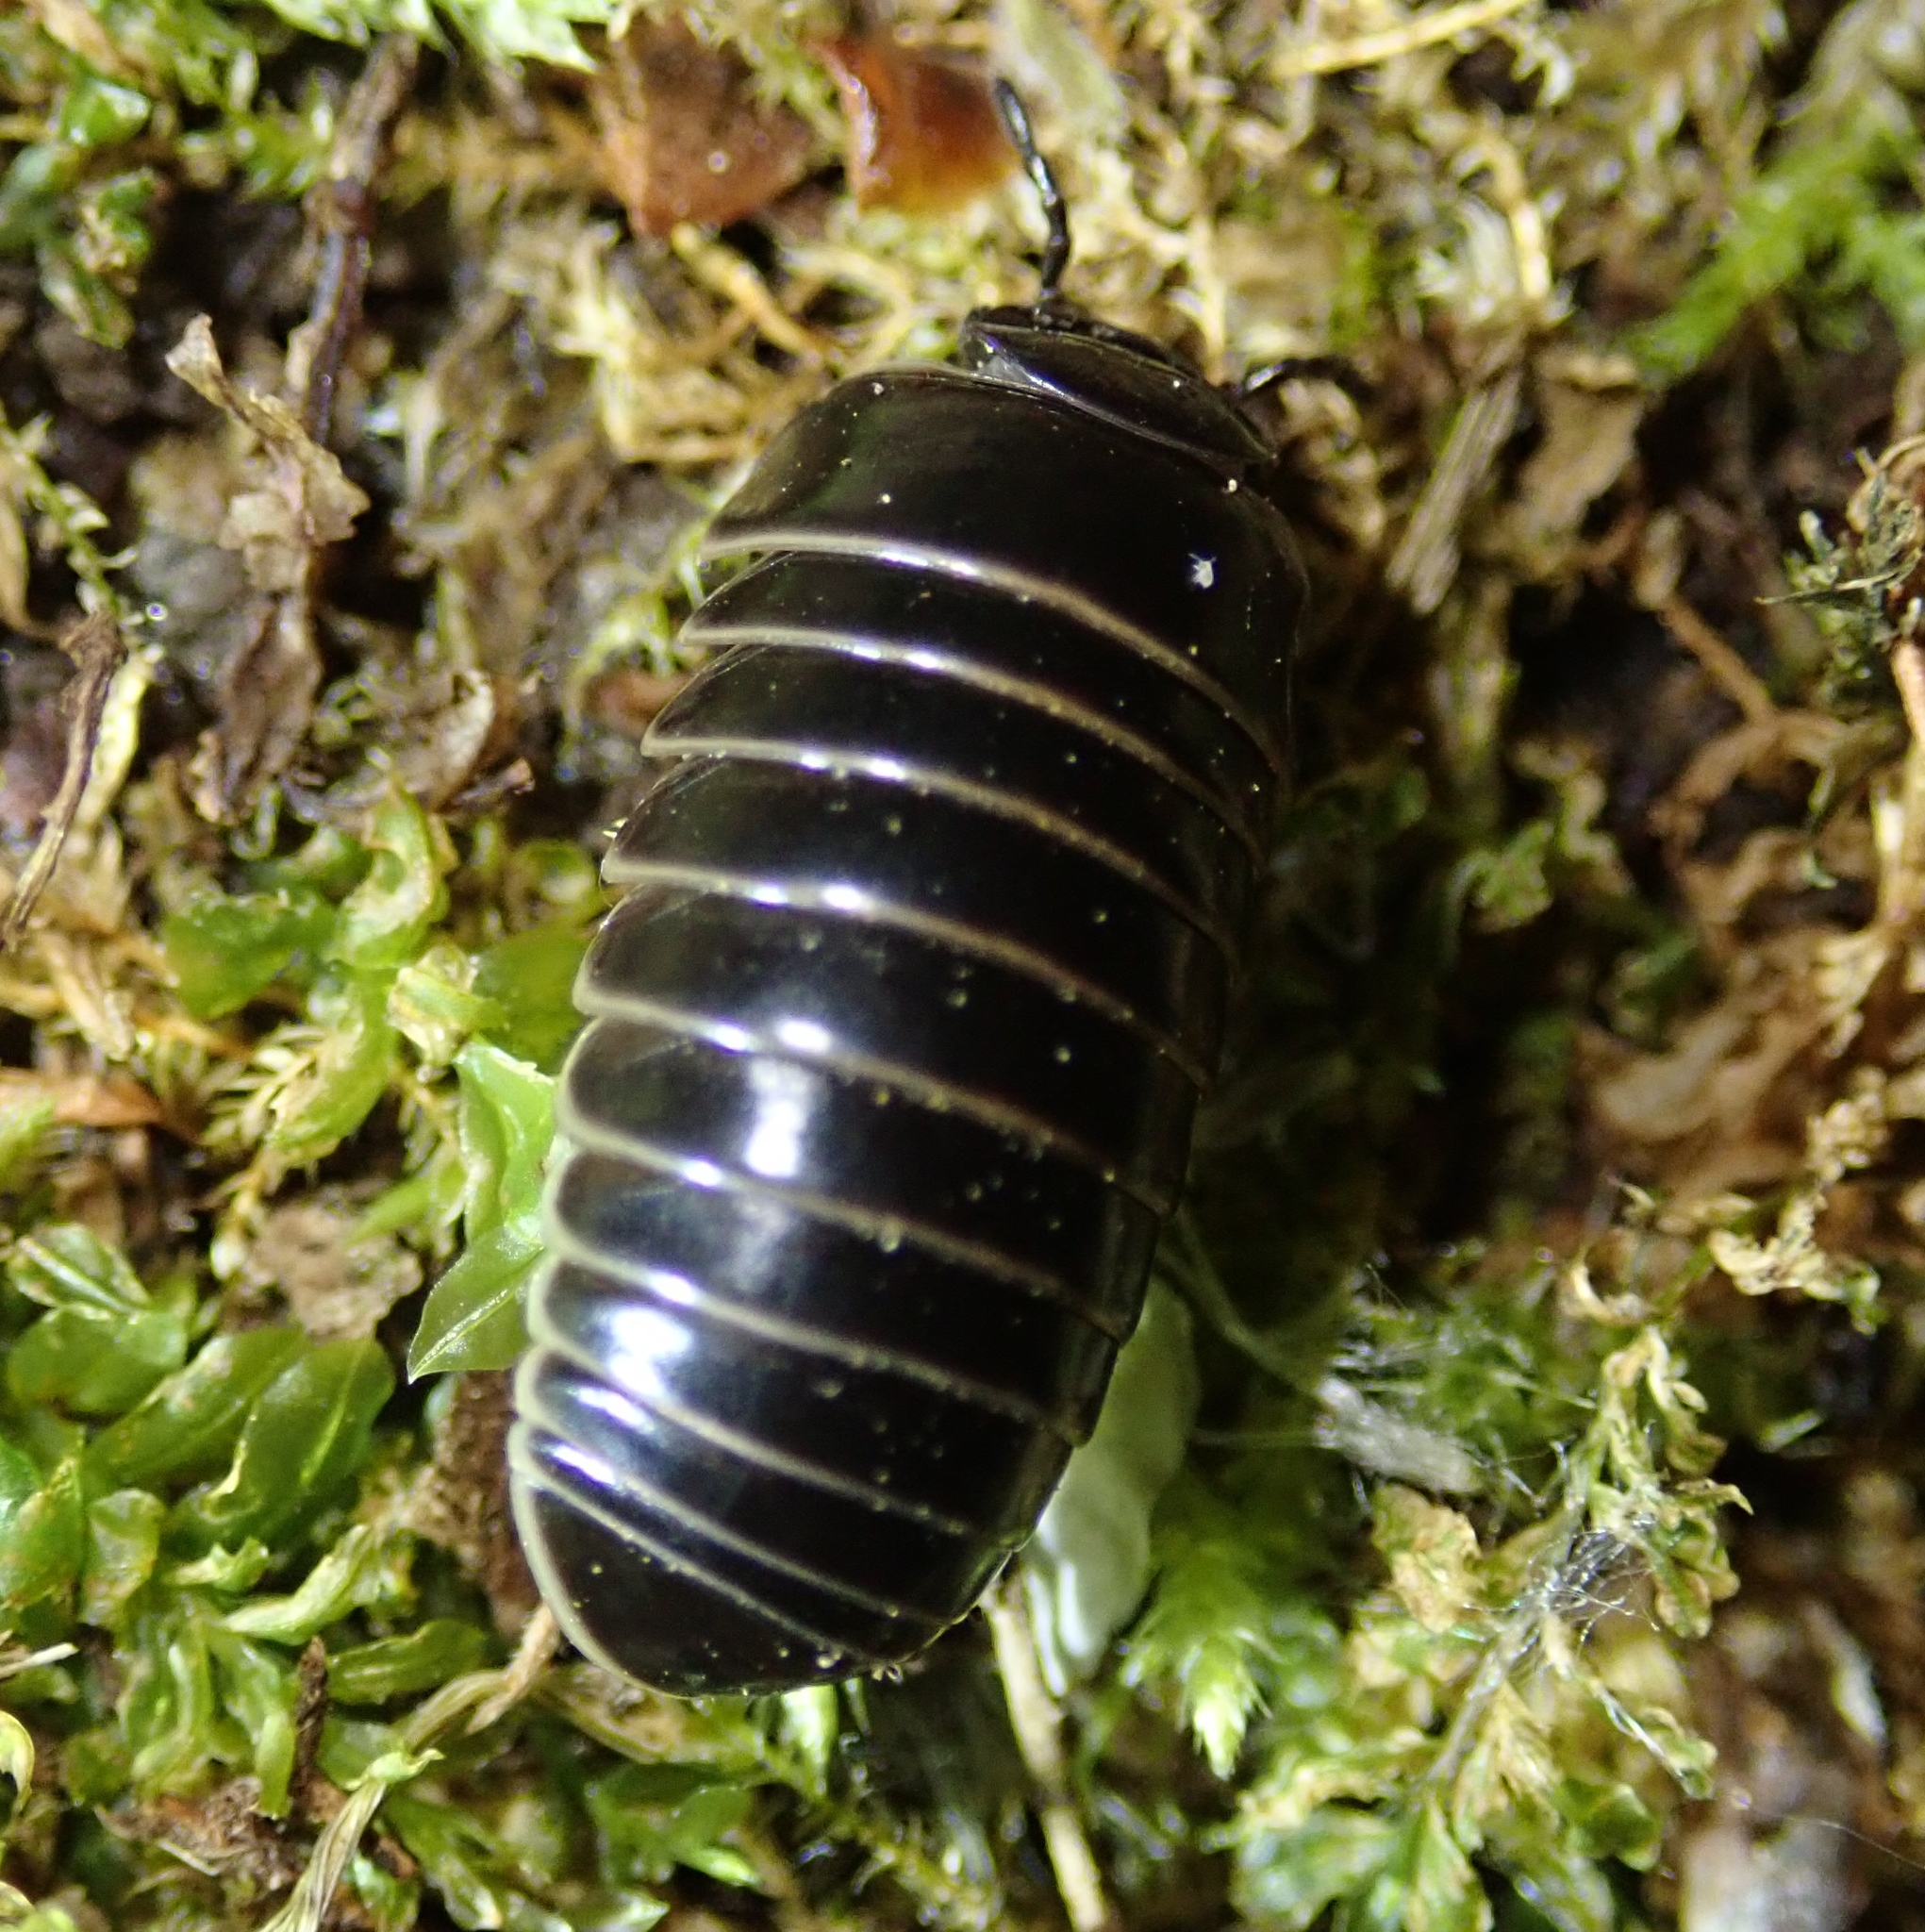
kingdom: Animalia
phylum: Arthropoda
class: Diplopoda
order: Glomerida
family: Glomeridae
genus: Glomeris
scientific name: Glomeris marginata
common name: Bordered pill millipede
